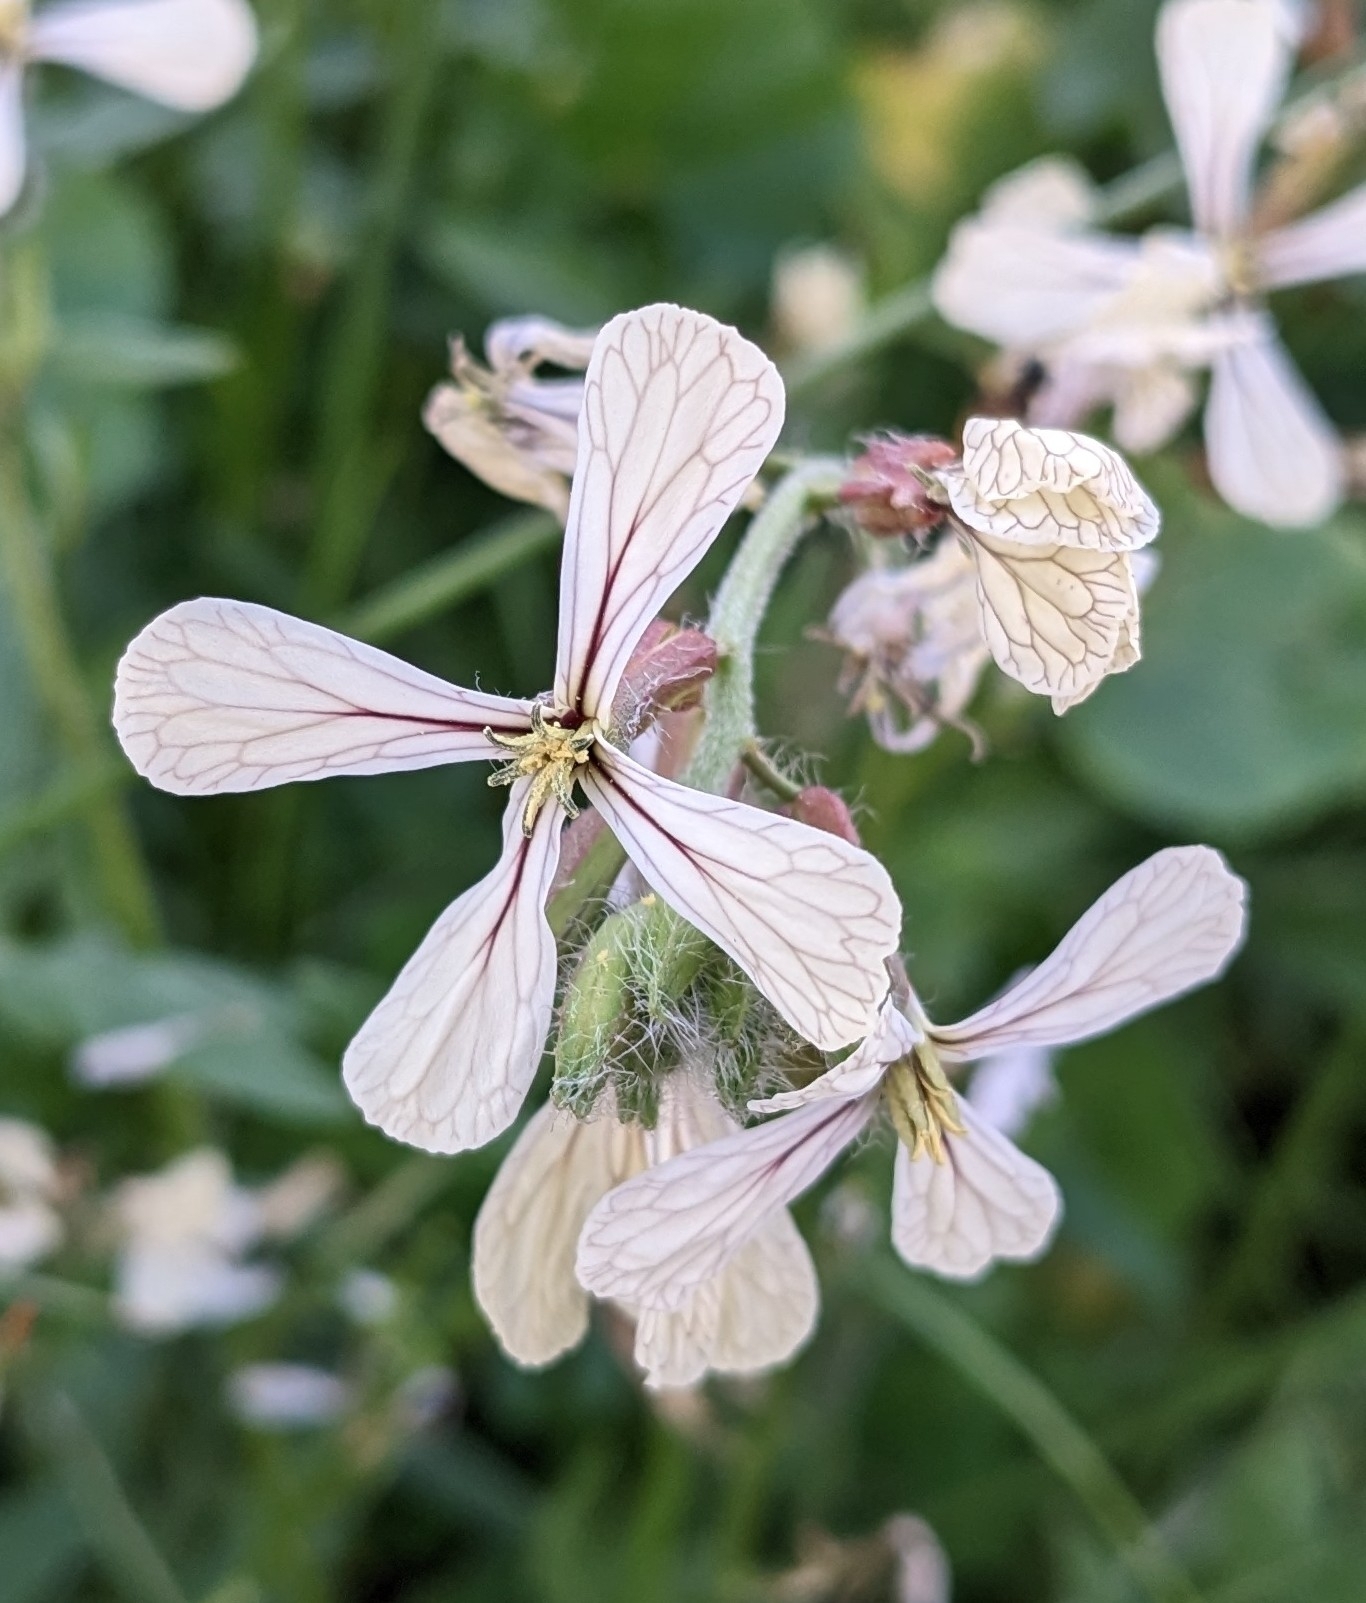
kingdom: Plantae
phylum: Tracheophyta
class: Magnoliopsida
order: Brassicales
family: Brassicaceae
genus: Eruca
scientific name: Eruca vesicaria
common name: Garden rocket
